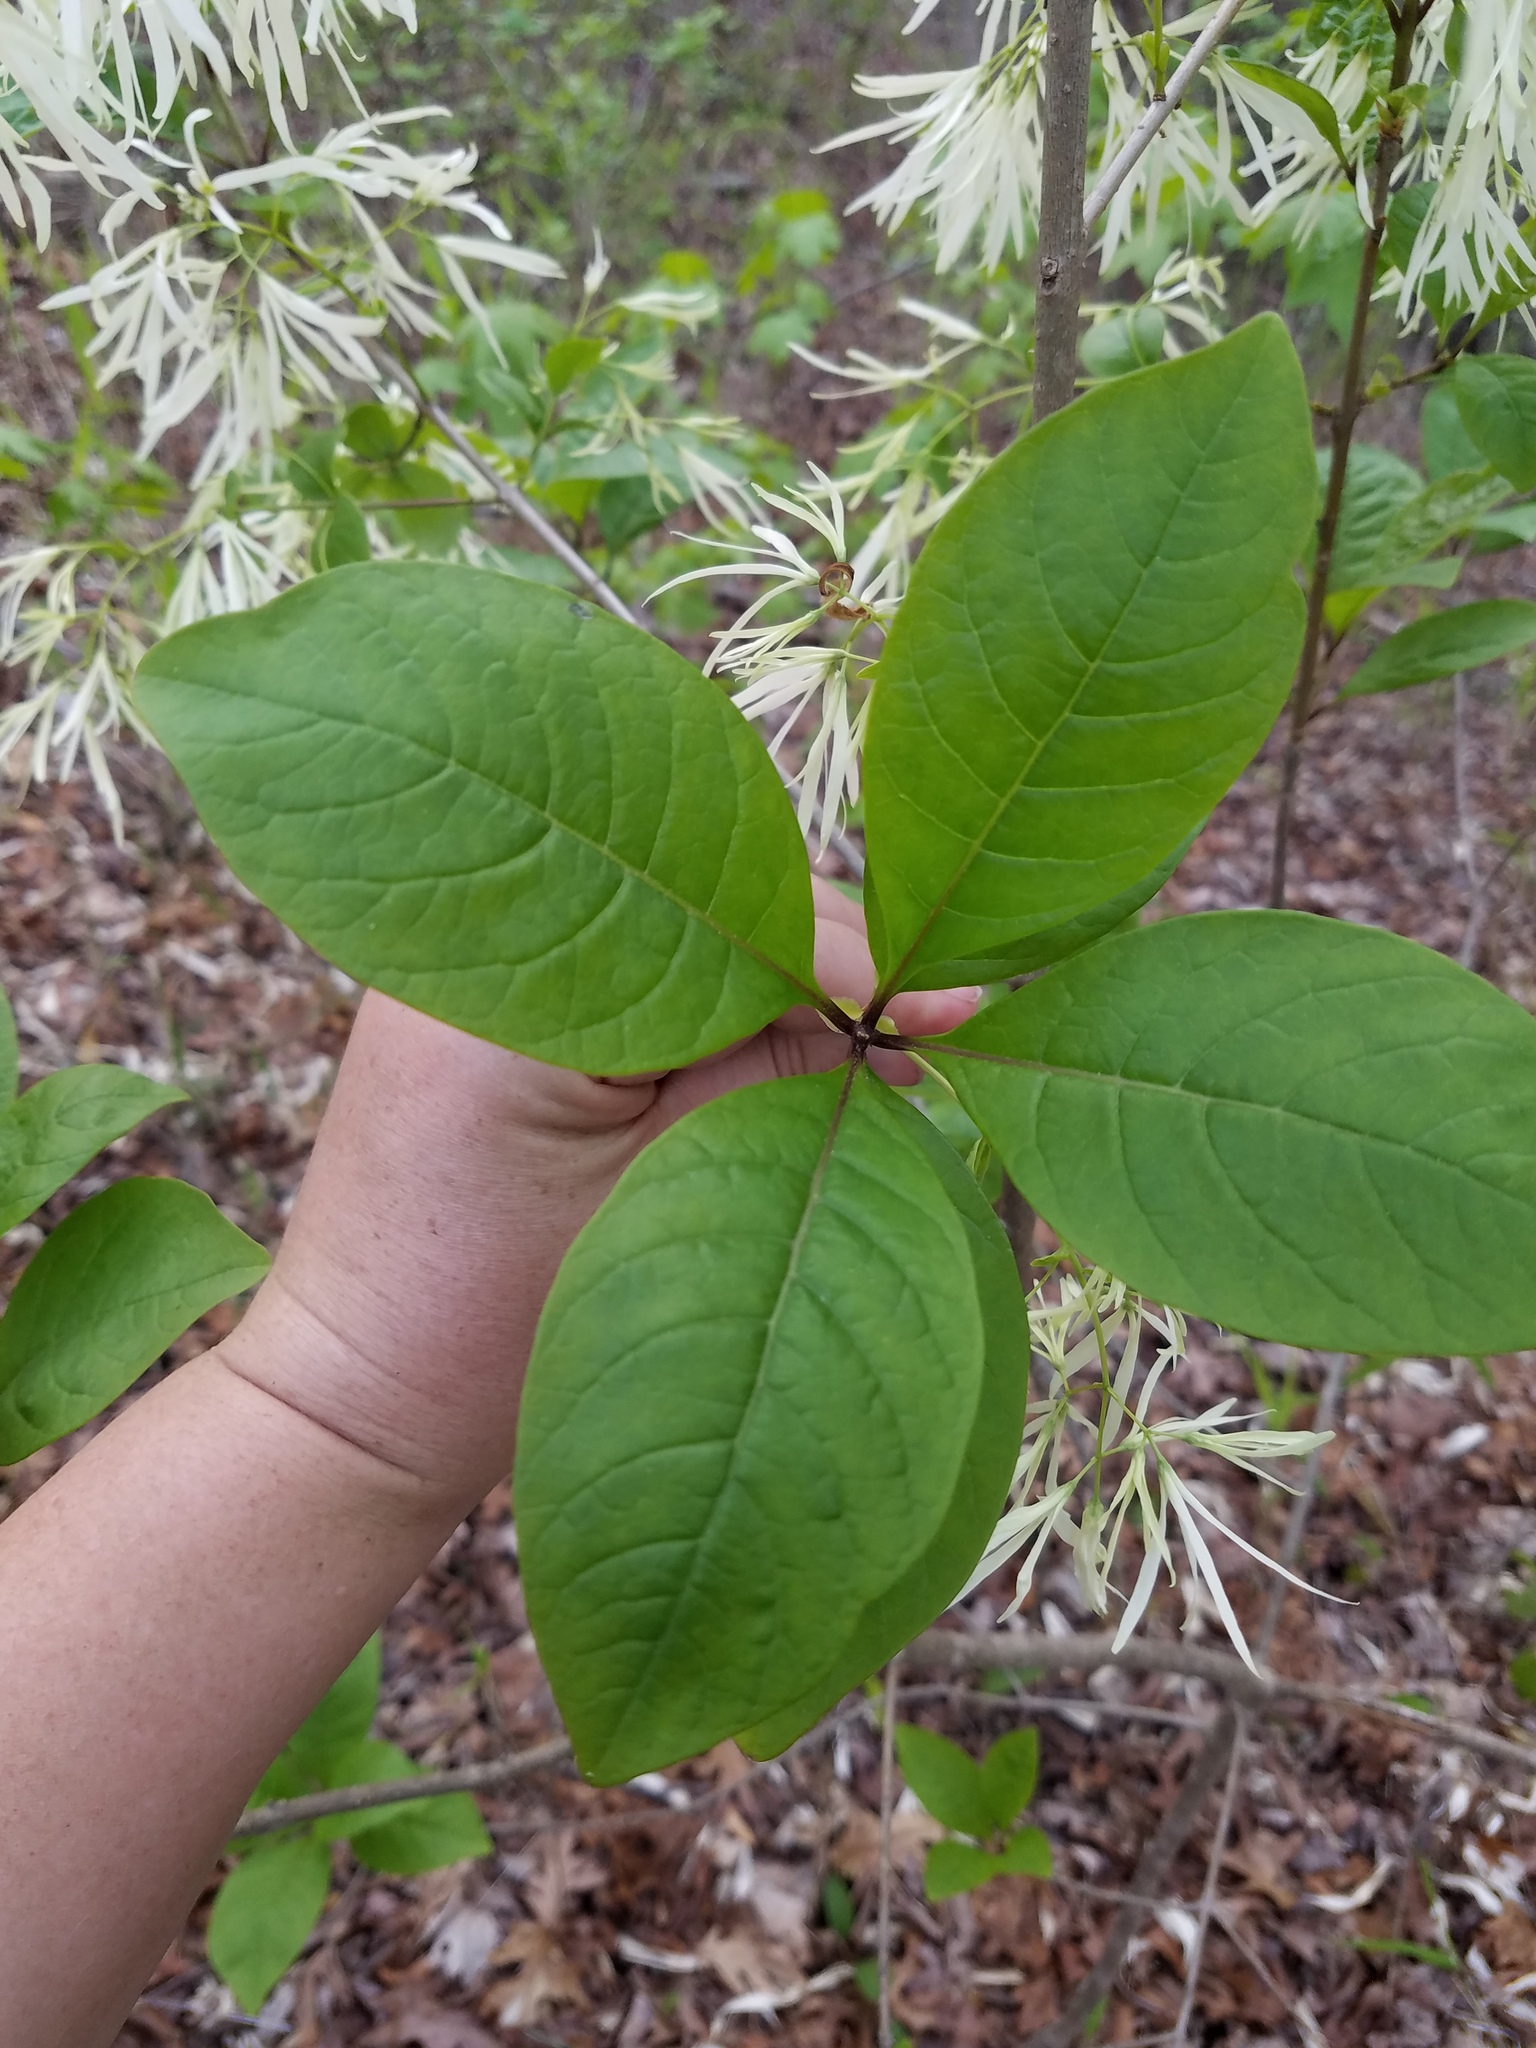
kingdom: Plantae
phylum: Tracheophyta
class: Magnoliopsida
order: Lamiales
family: Oleaceae
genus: Chionanthus
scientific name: Chionanthus virginicus
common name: American fringetree
